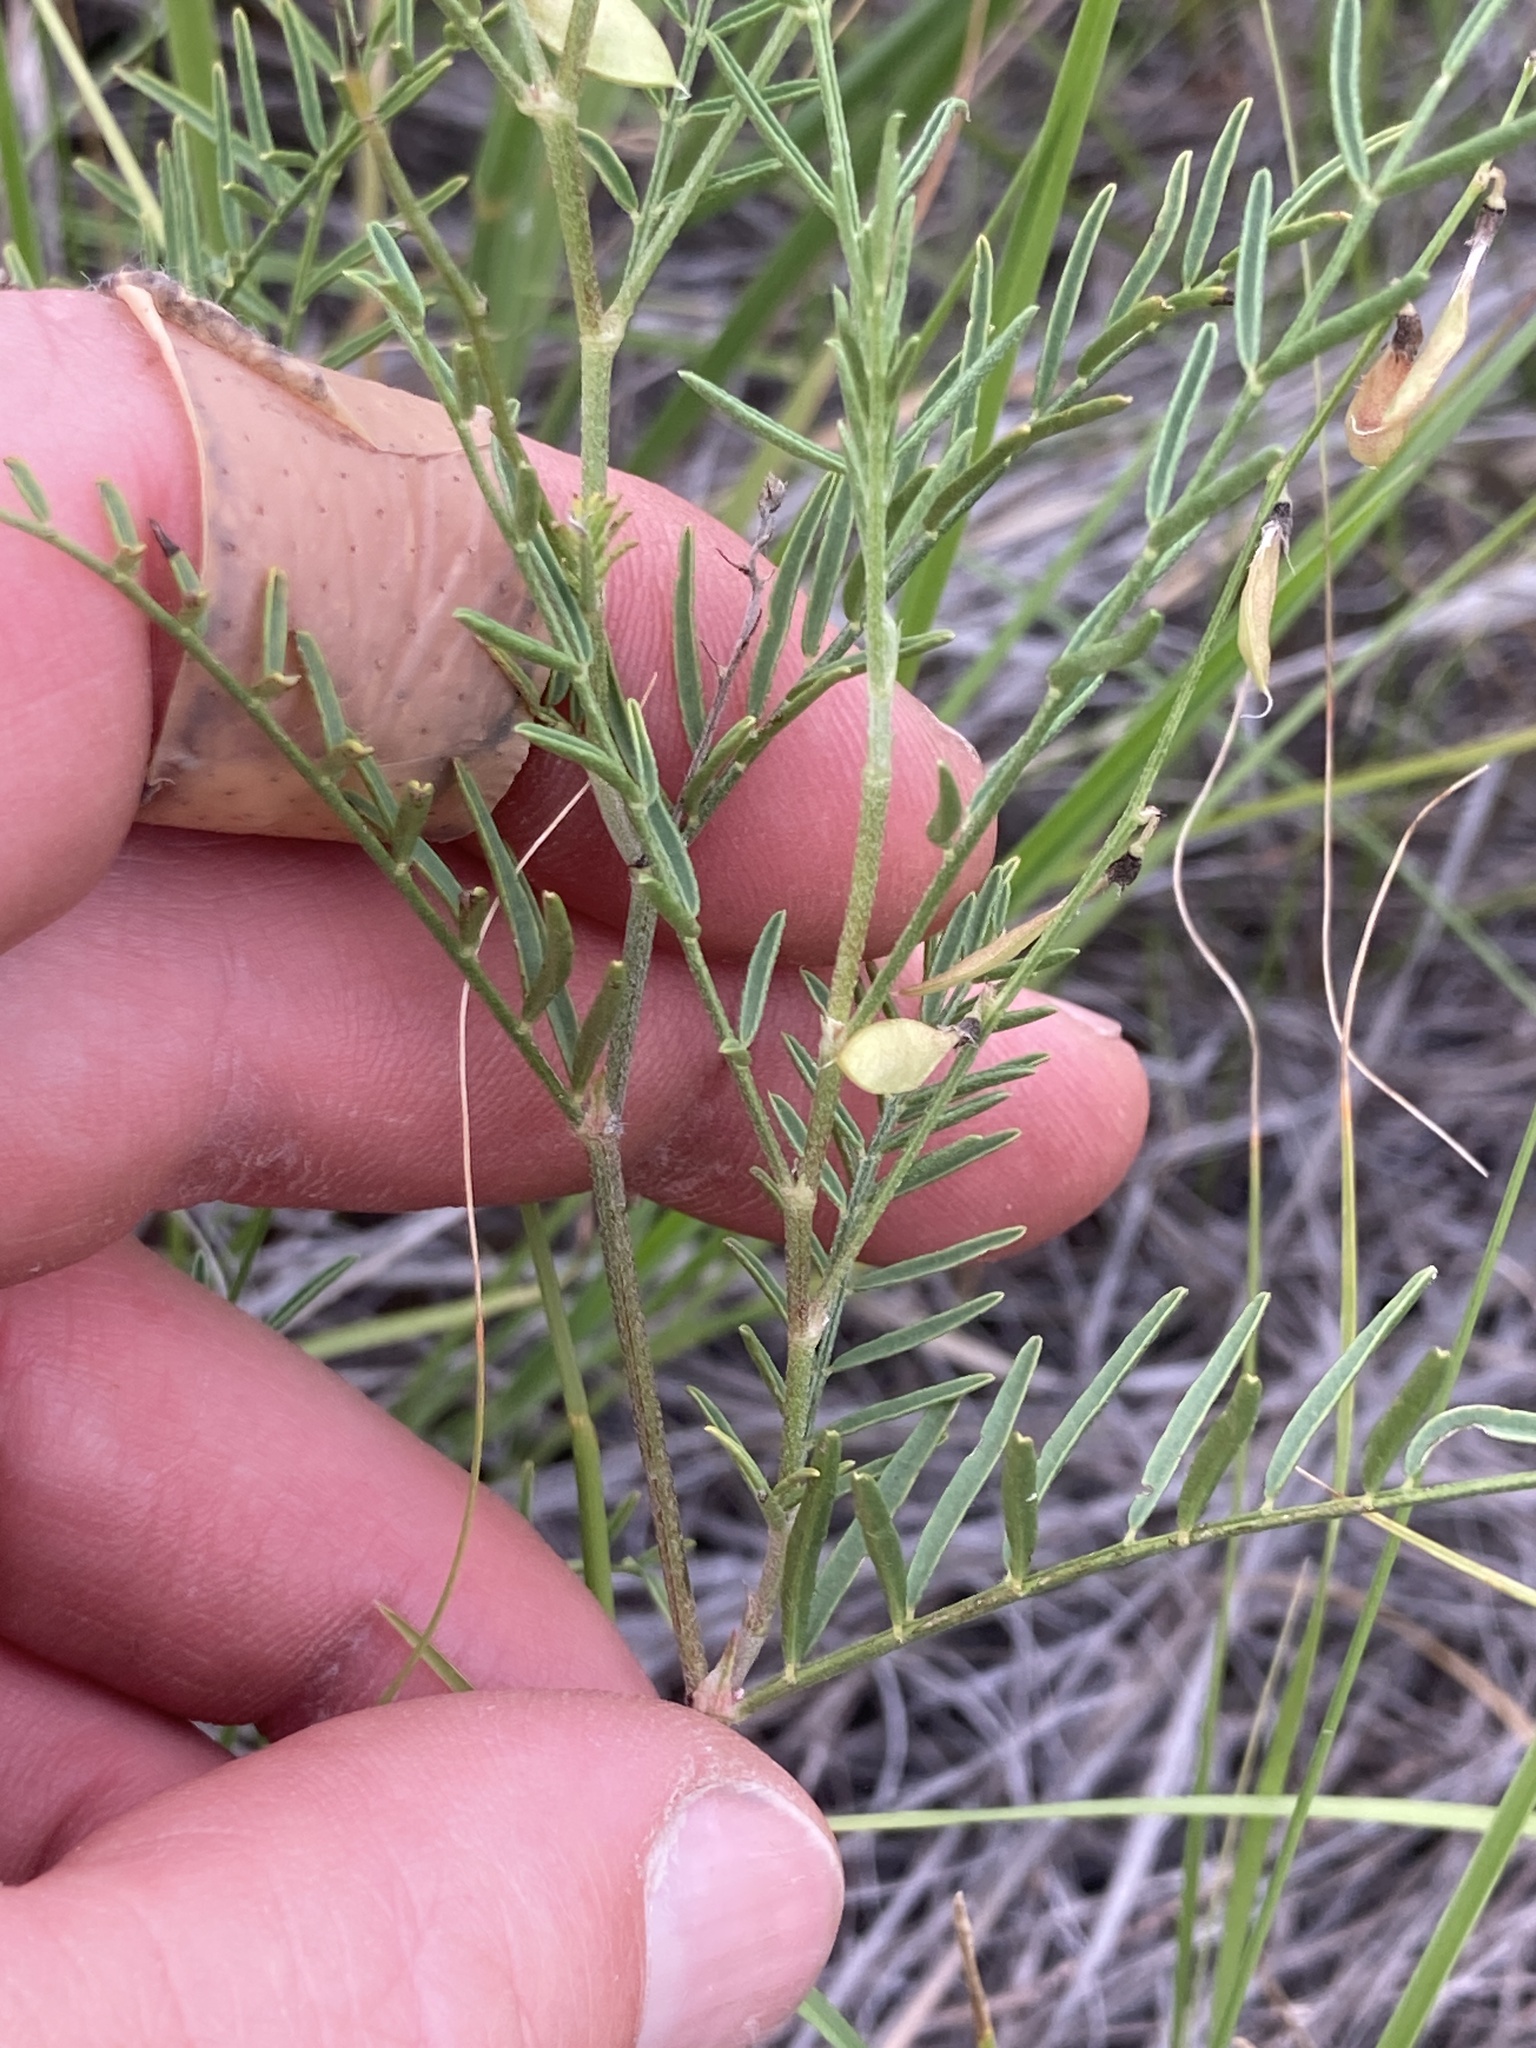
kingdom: Plantae
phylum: Tracheophyta
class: Magnoliopsida
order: Fabales
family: Fabaceae
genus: Astragalus
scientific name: Astragalus tenellus
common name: Pulse milk-vetch
